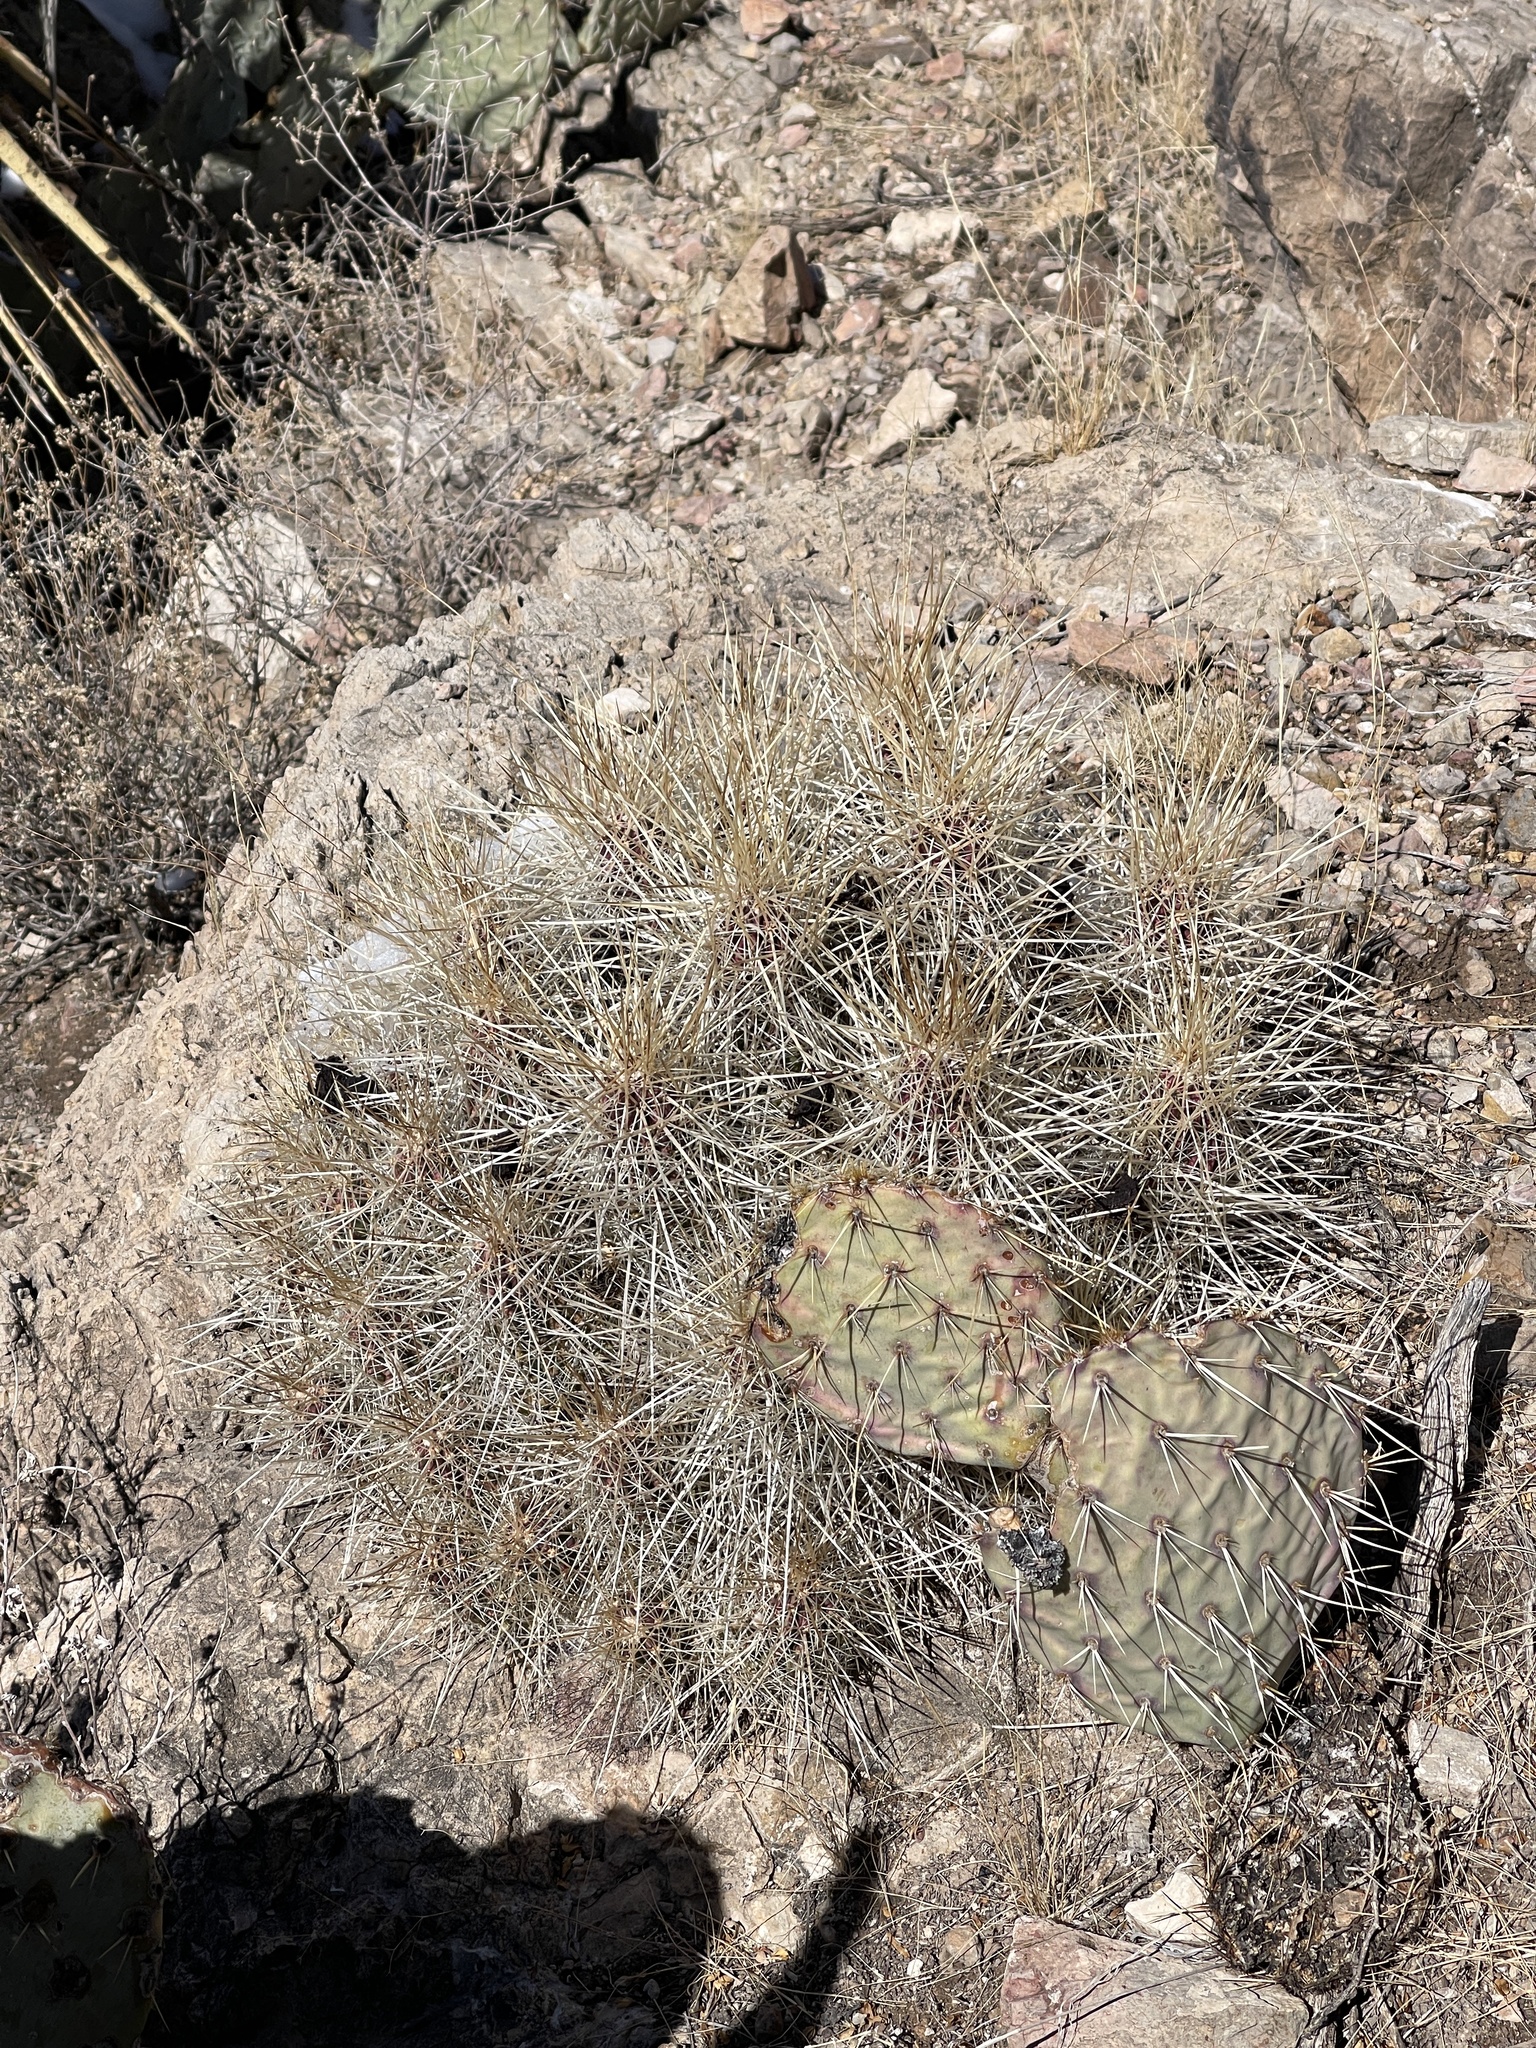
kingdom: Plantae
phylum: Tracheophyta
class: Magnoliopsida
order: Caryophyllales
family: Cactaceae
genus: Echinocereus
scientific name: Echinocereus stramineus
